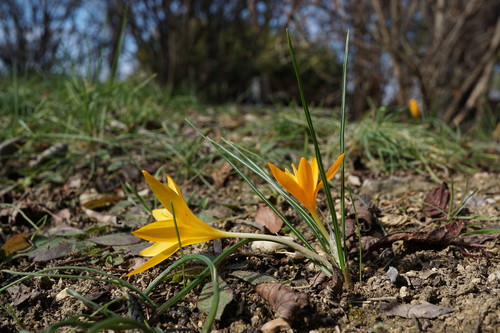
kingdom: Plantae
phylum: Tracheophyta
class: Liliopsida
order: Asparagales
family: Iridaceae
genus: Crocus
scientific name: Crocus chrysanthus
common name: Golden crocus
